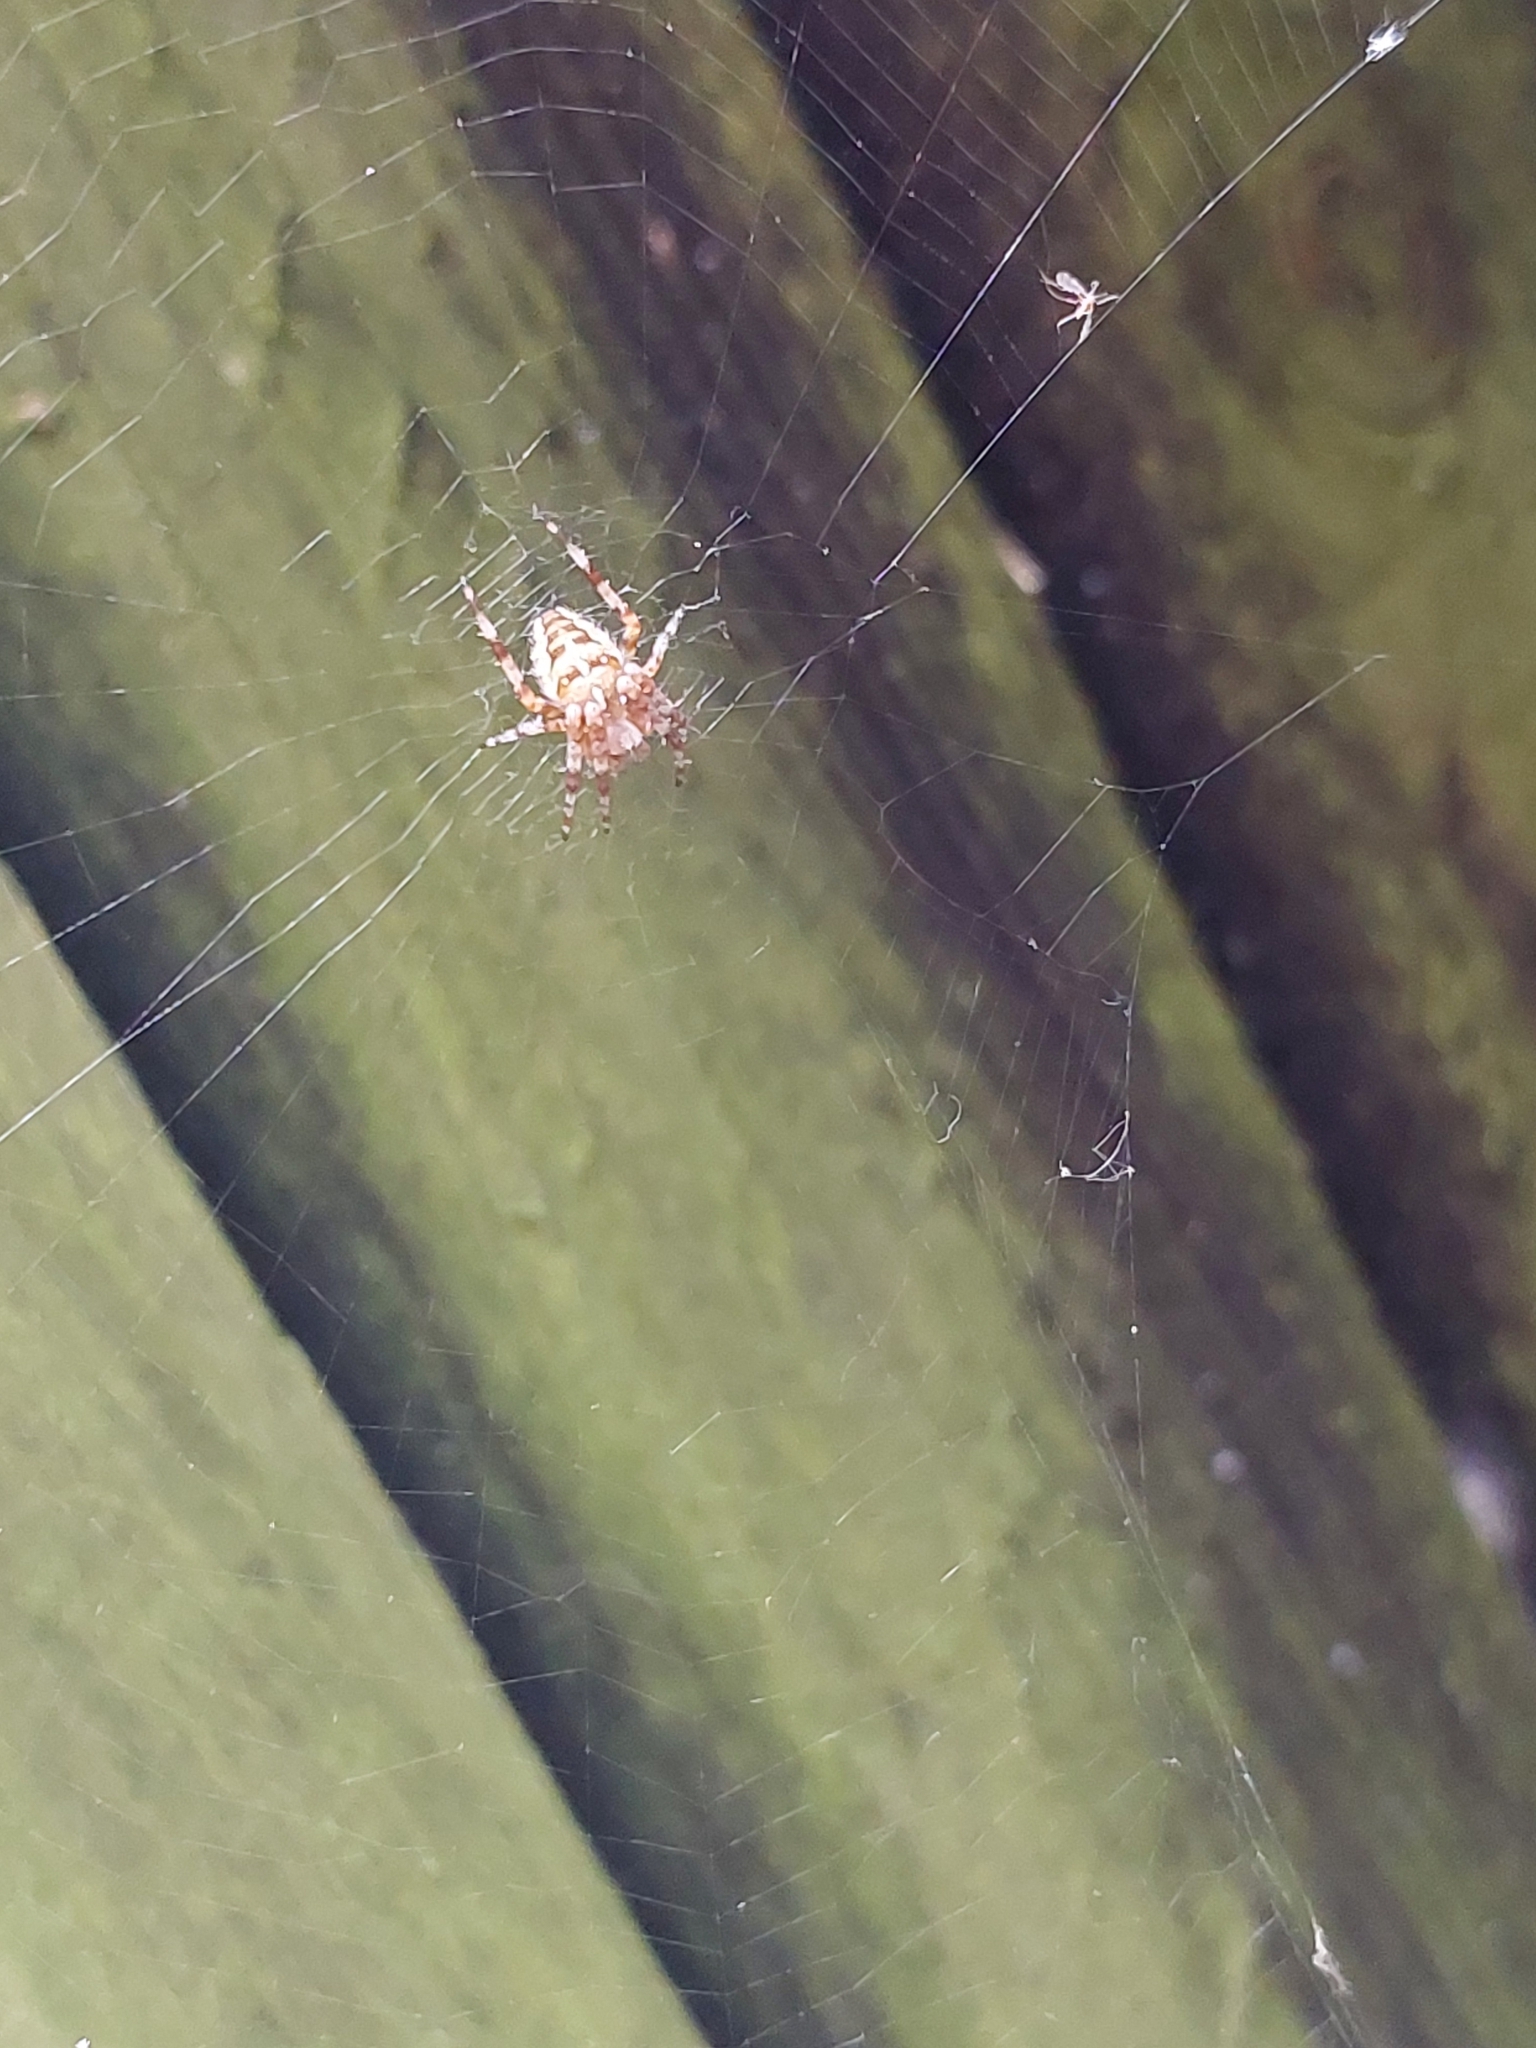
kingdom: Animalia
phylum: Arthropoda
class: Arachnida
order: Araneae
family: Araneidae
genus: Araneus
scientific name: Araneus diadematus
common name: Cross orbweaver
